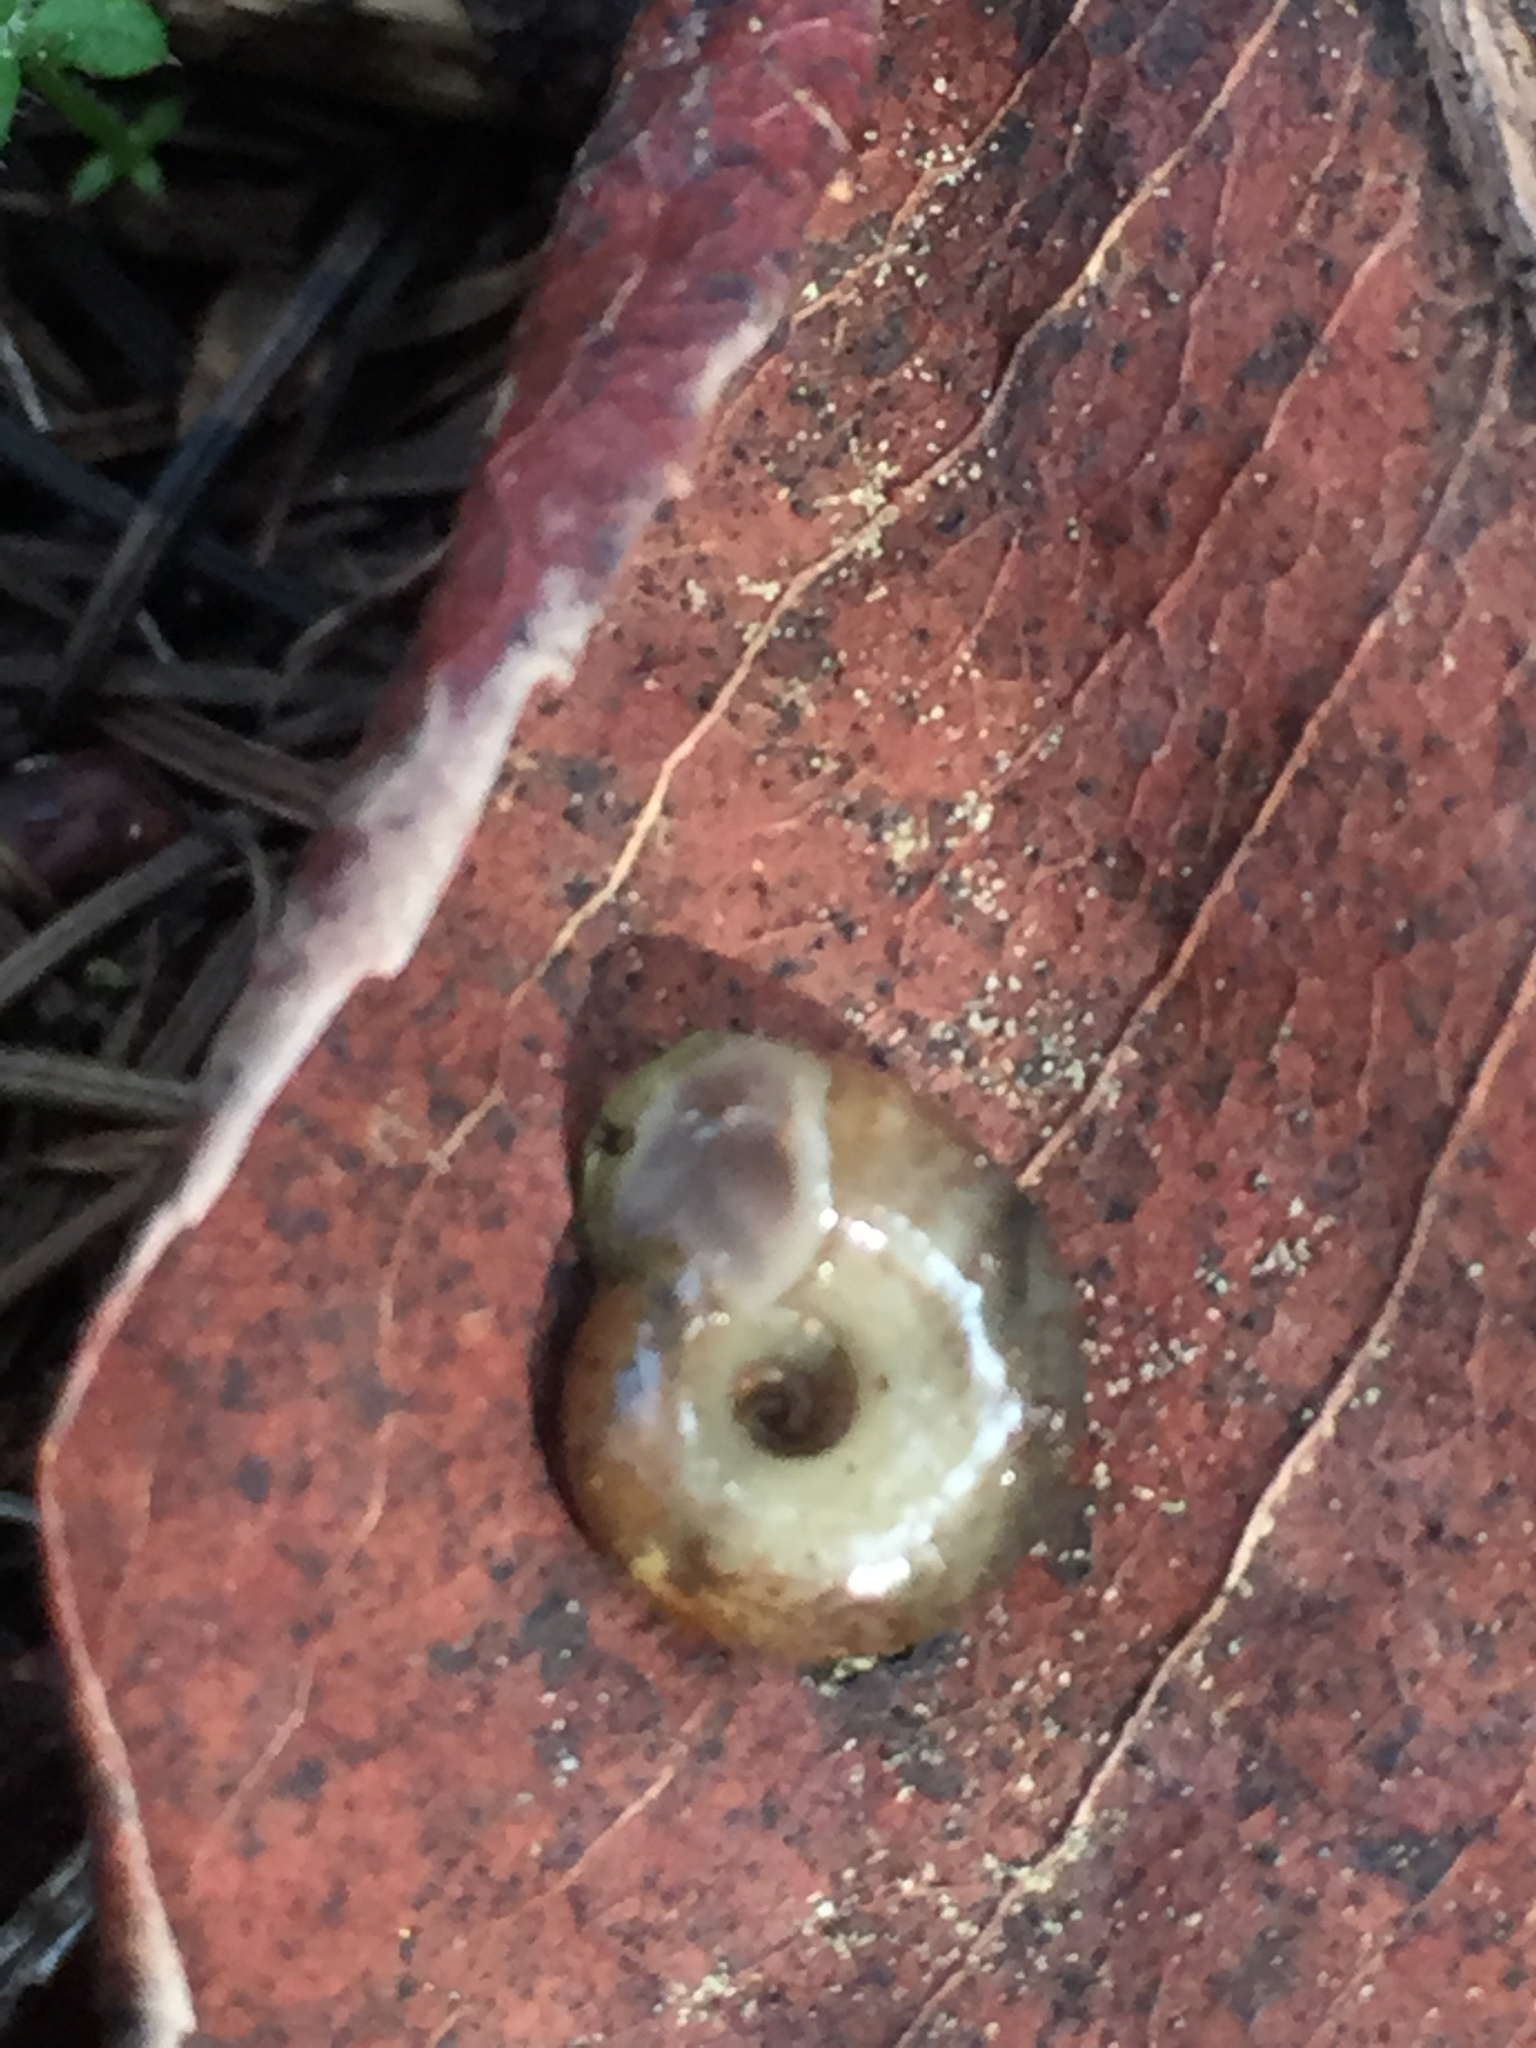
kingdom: Animalia
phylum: Mollusca
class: Gastropoda
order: Stylommatophora
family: Haplotrematidae
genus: Haplotrema
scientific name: Haplotrema minimum
